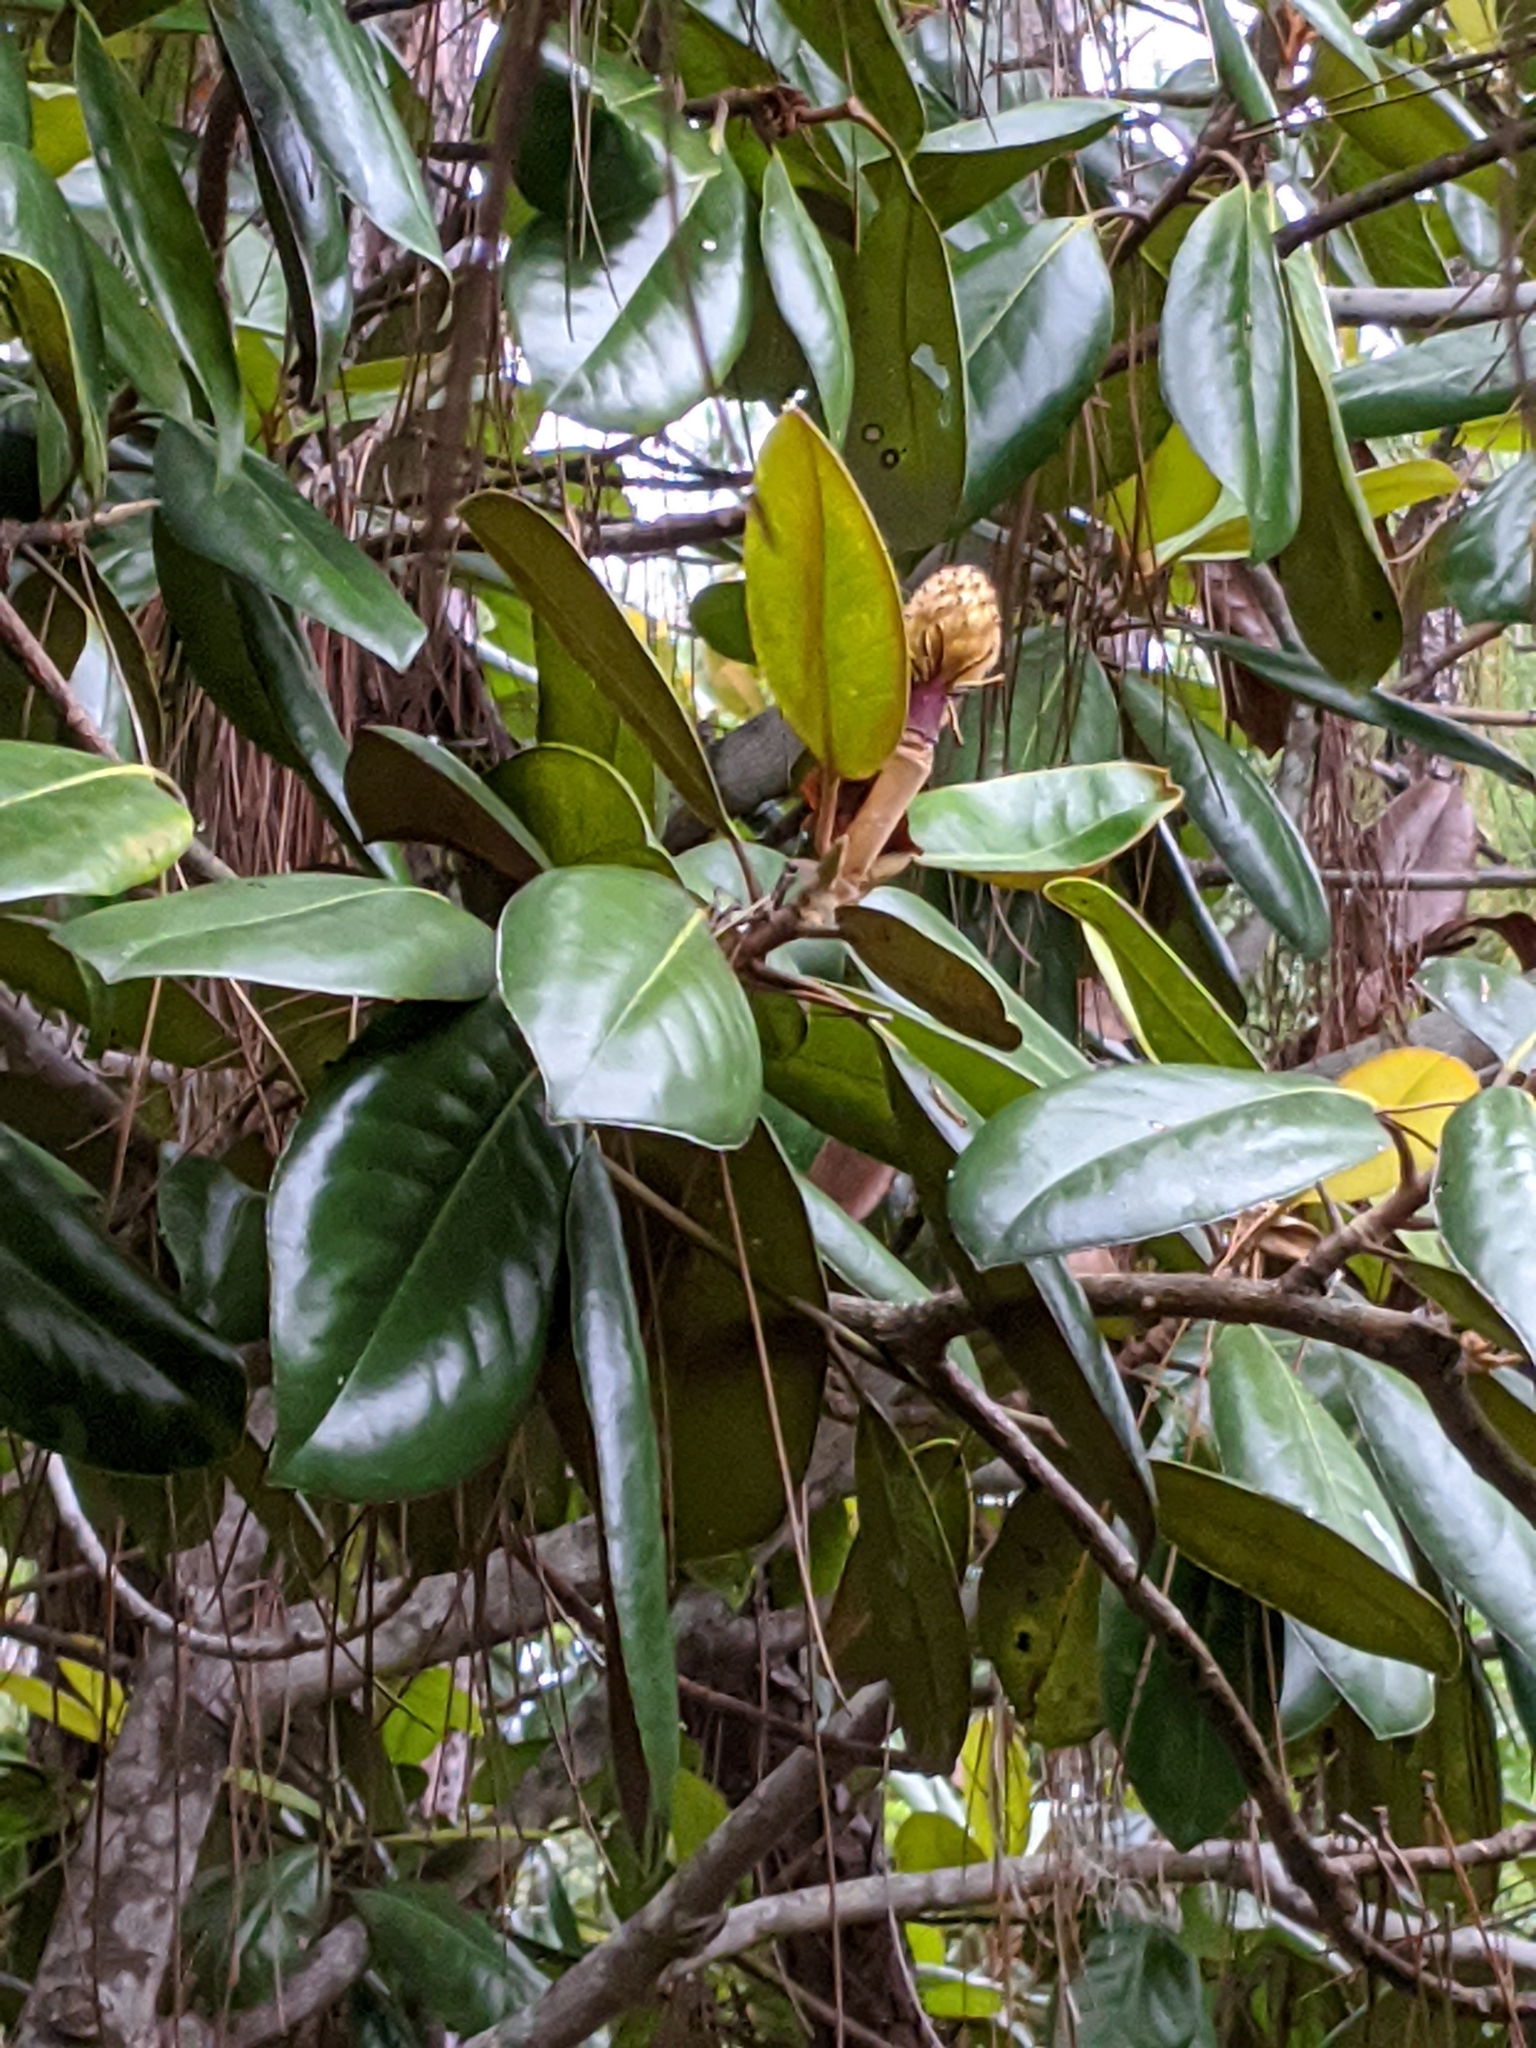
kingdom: Plantae
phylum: Tracheophyta
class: Magnoliopsida
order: Magnoliales
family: Magnoliaceae
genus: Magnolia
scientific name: Magnolia grandiflora
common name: Southern magnolia
